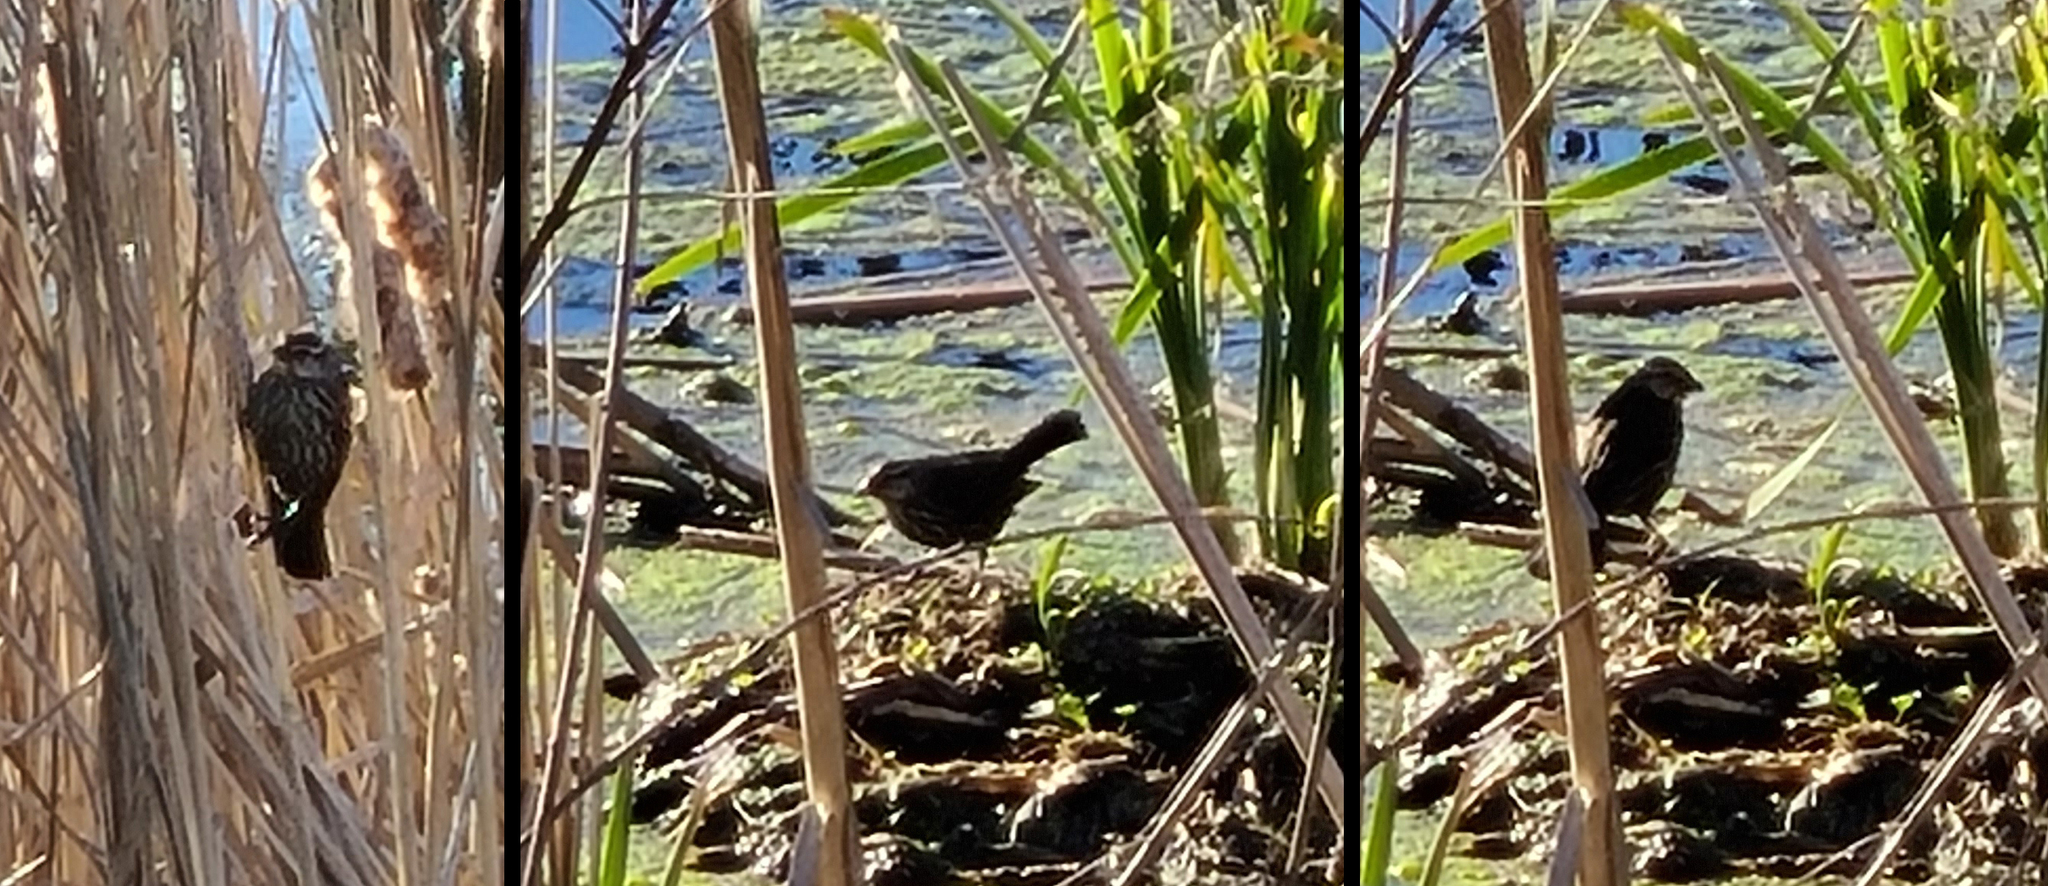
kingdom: Animalia
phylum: Chordata
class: Aves
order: Passeriformes
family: Icteridae
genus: Agelaius
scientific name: Agelaius phoeniceus
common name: Red-winged blackbird
